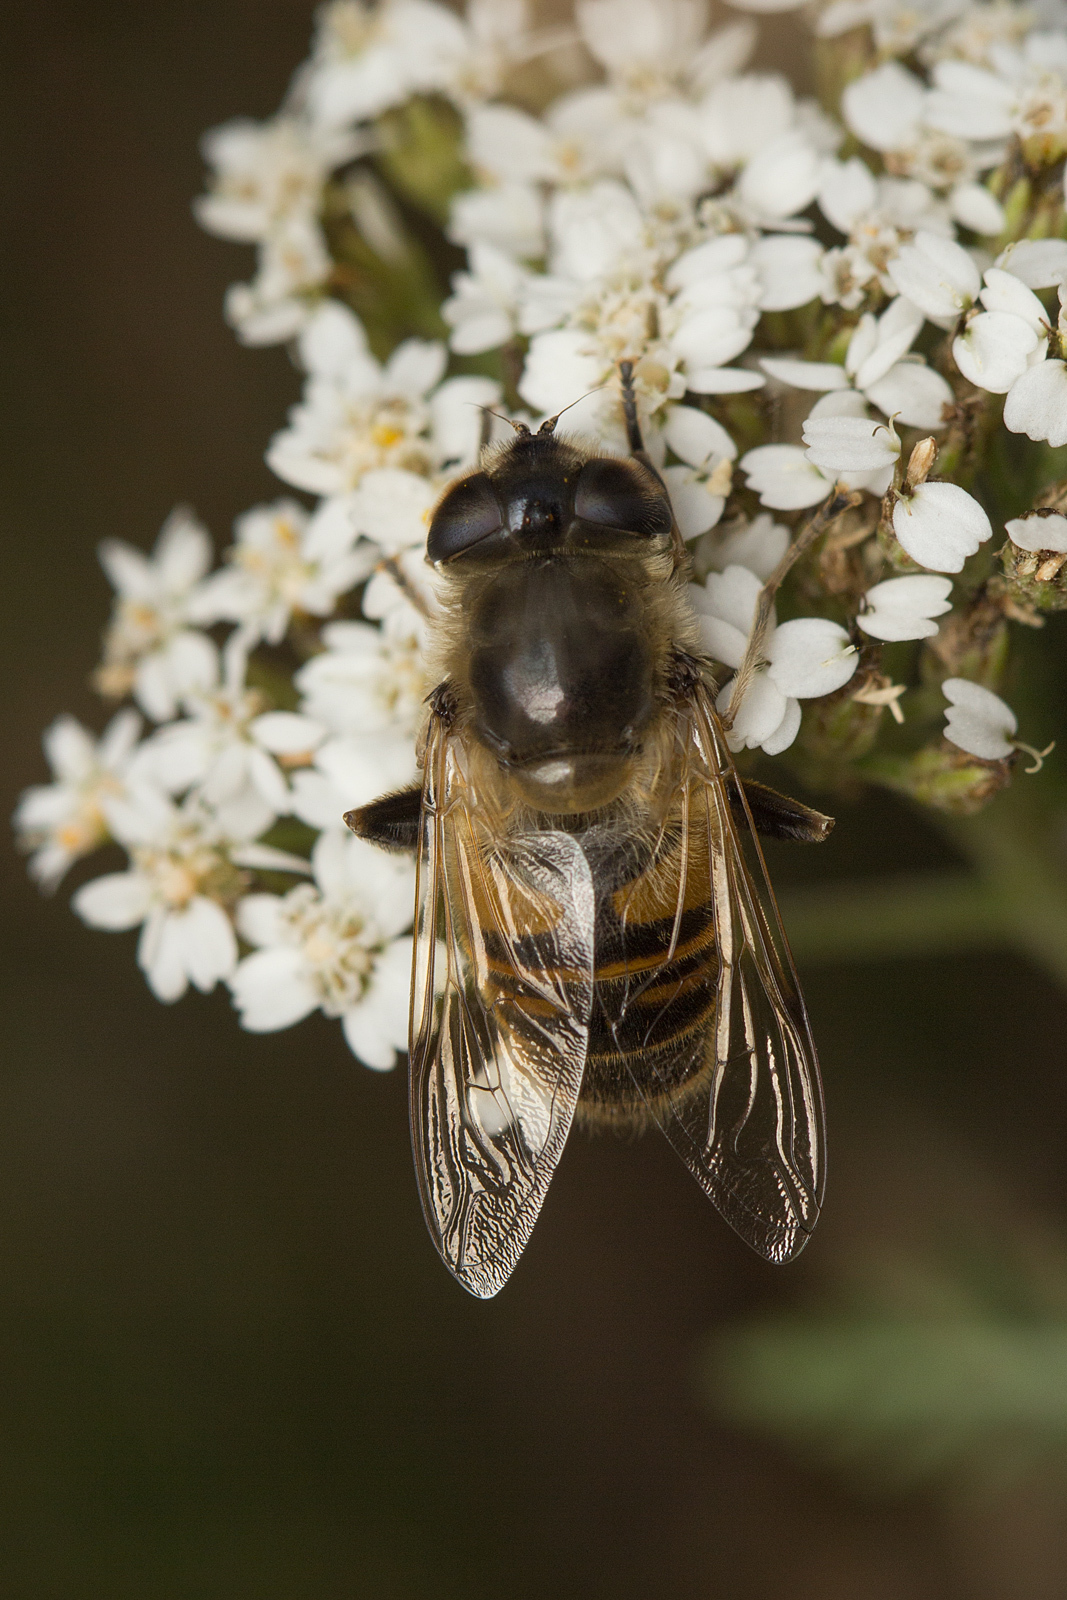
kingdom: Animalia
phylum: Arthropoda
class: Insecta
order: Diptera
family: Syrphidae
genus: Eristalis
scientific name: Eristalis tenax
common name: Drone fly
